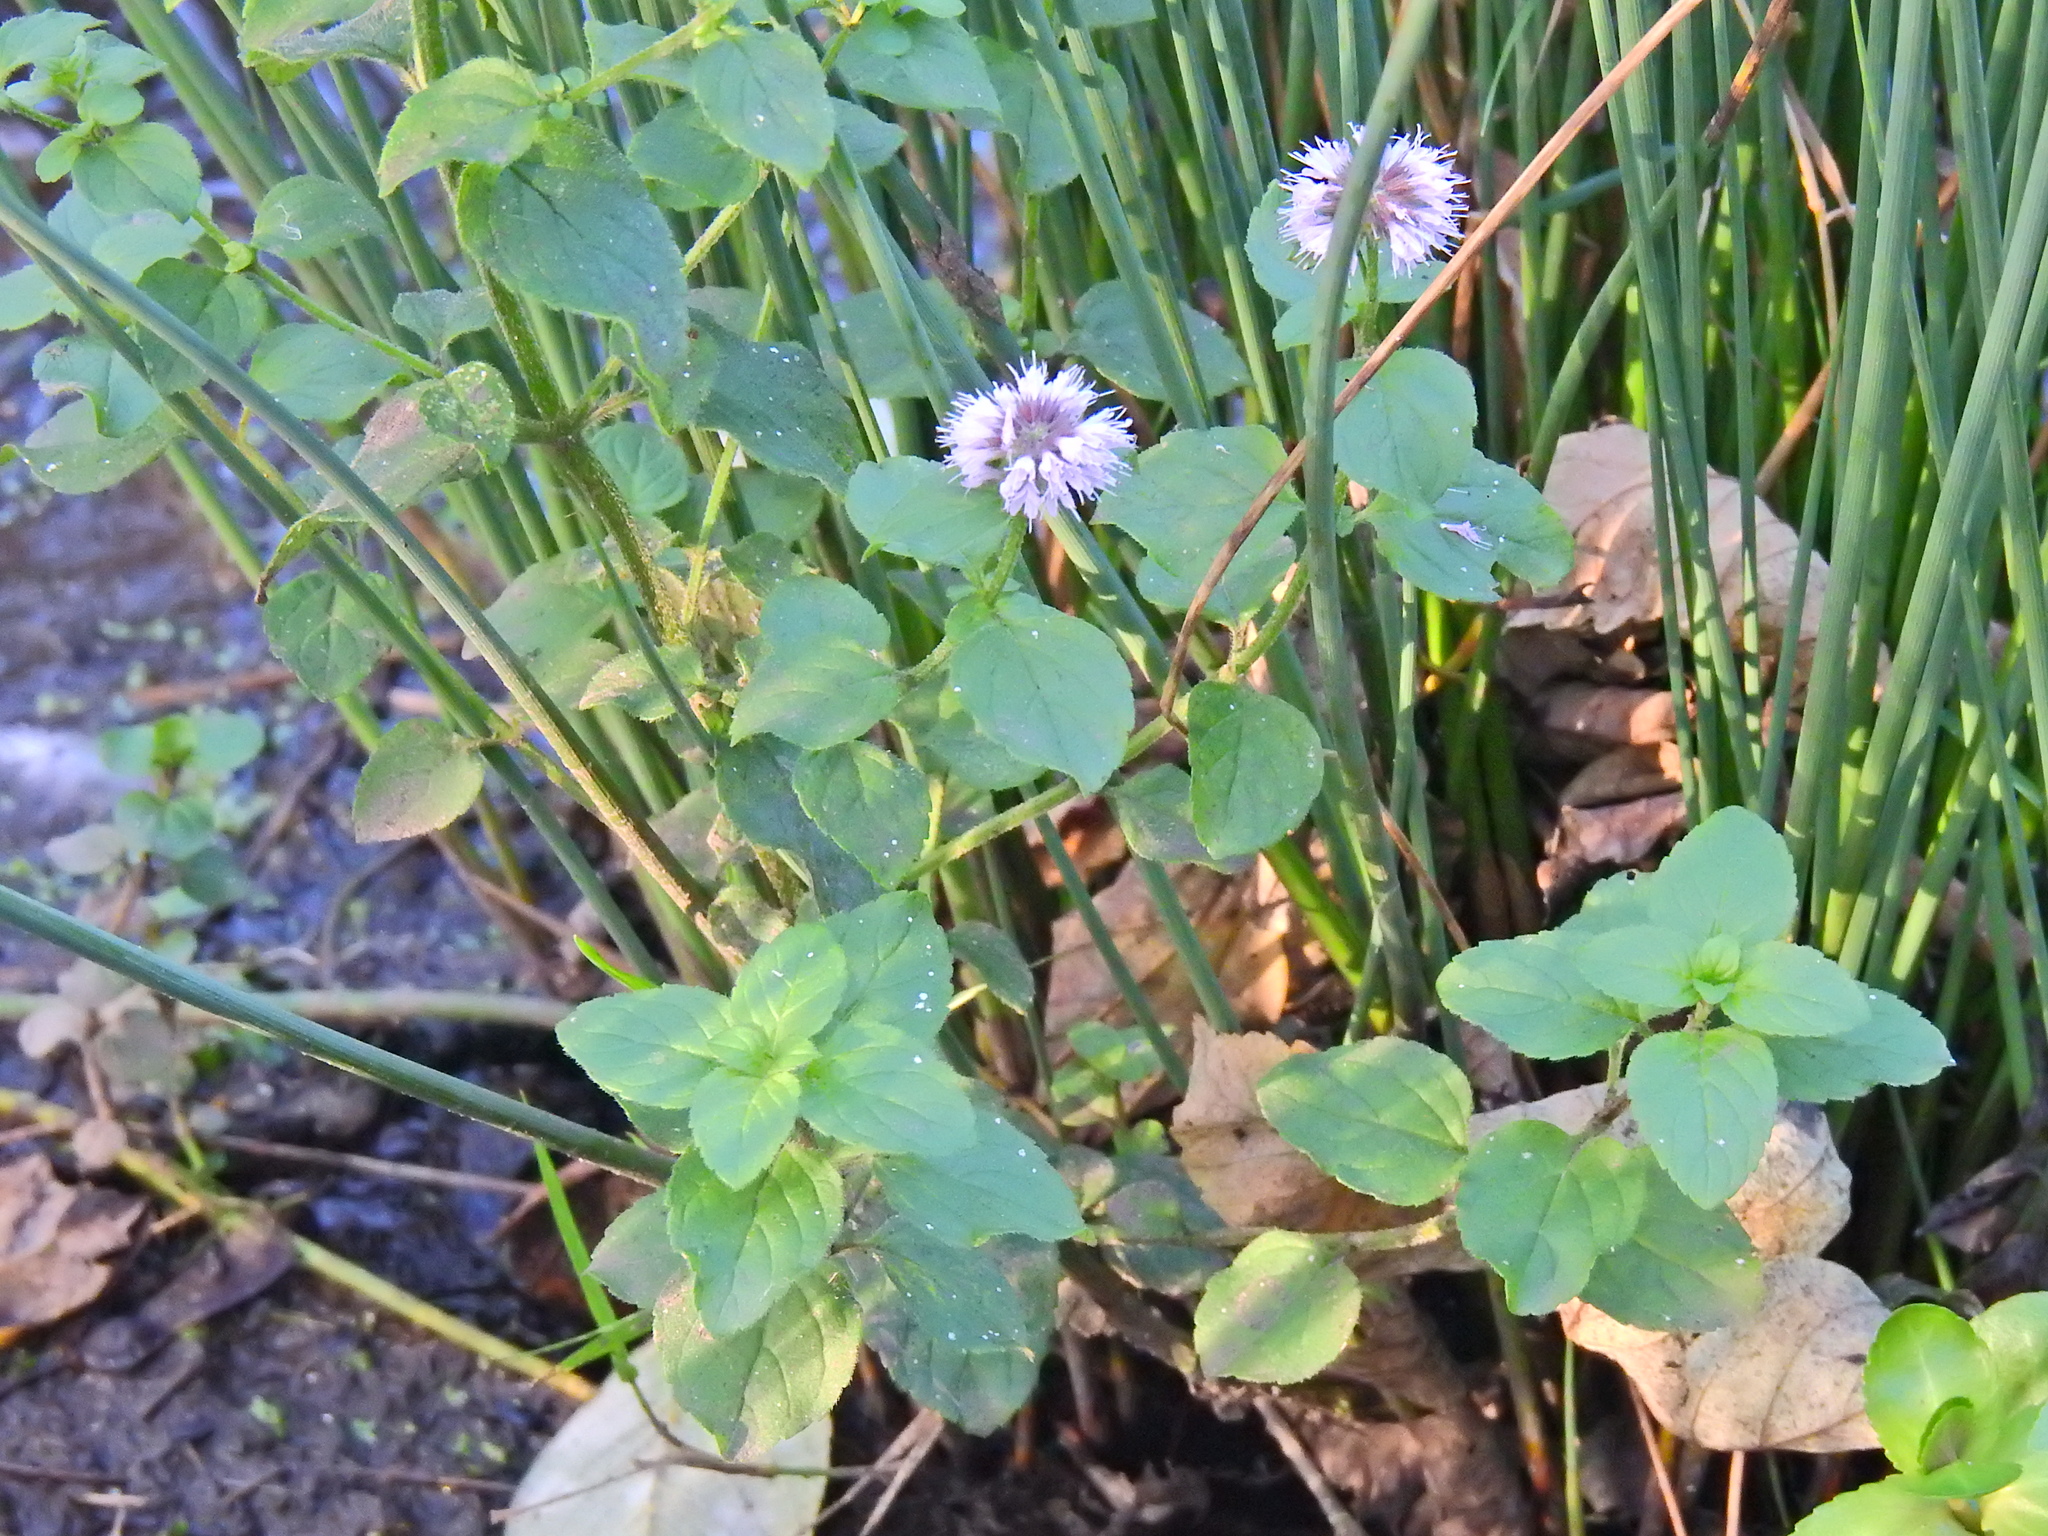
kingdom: Plantae
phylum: Tracheophyta
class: Magnoliopsida
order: Lamiales
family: Lamiaceae
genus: Mentha
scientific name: Mentha aquatica
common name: Water mint
